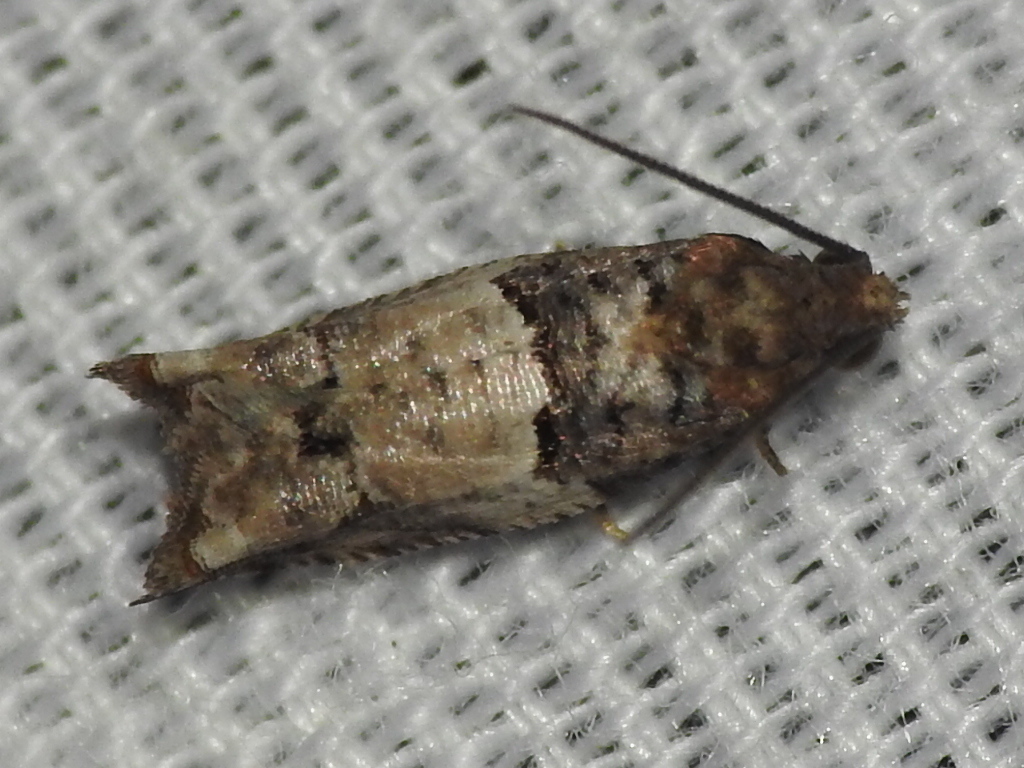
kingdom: Animalia
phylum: Arthropoda
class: Insecta
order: Lepidoptera
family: Tortricidae
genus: Rhopobota
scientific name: Rhopobota dietziana
